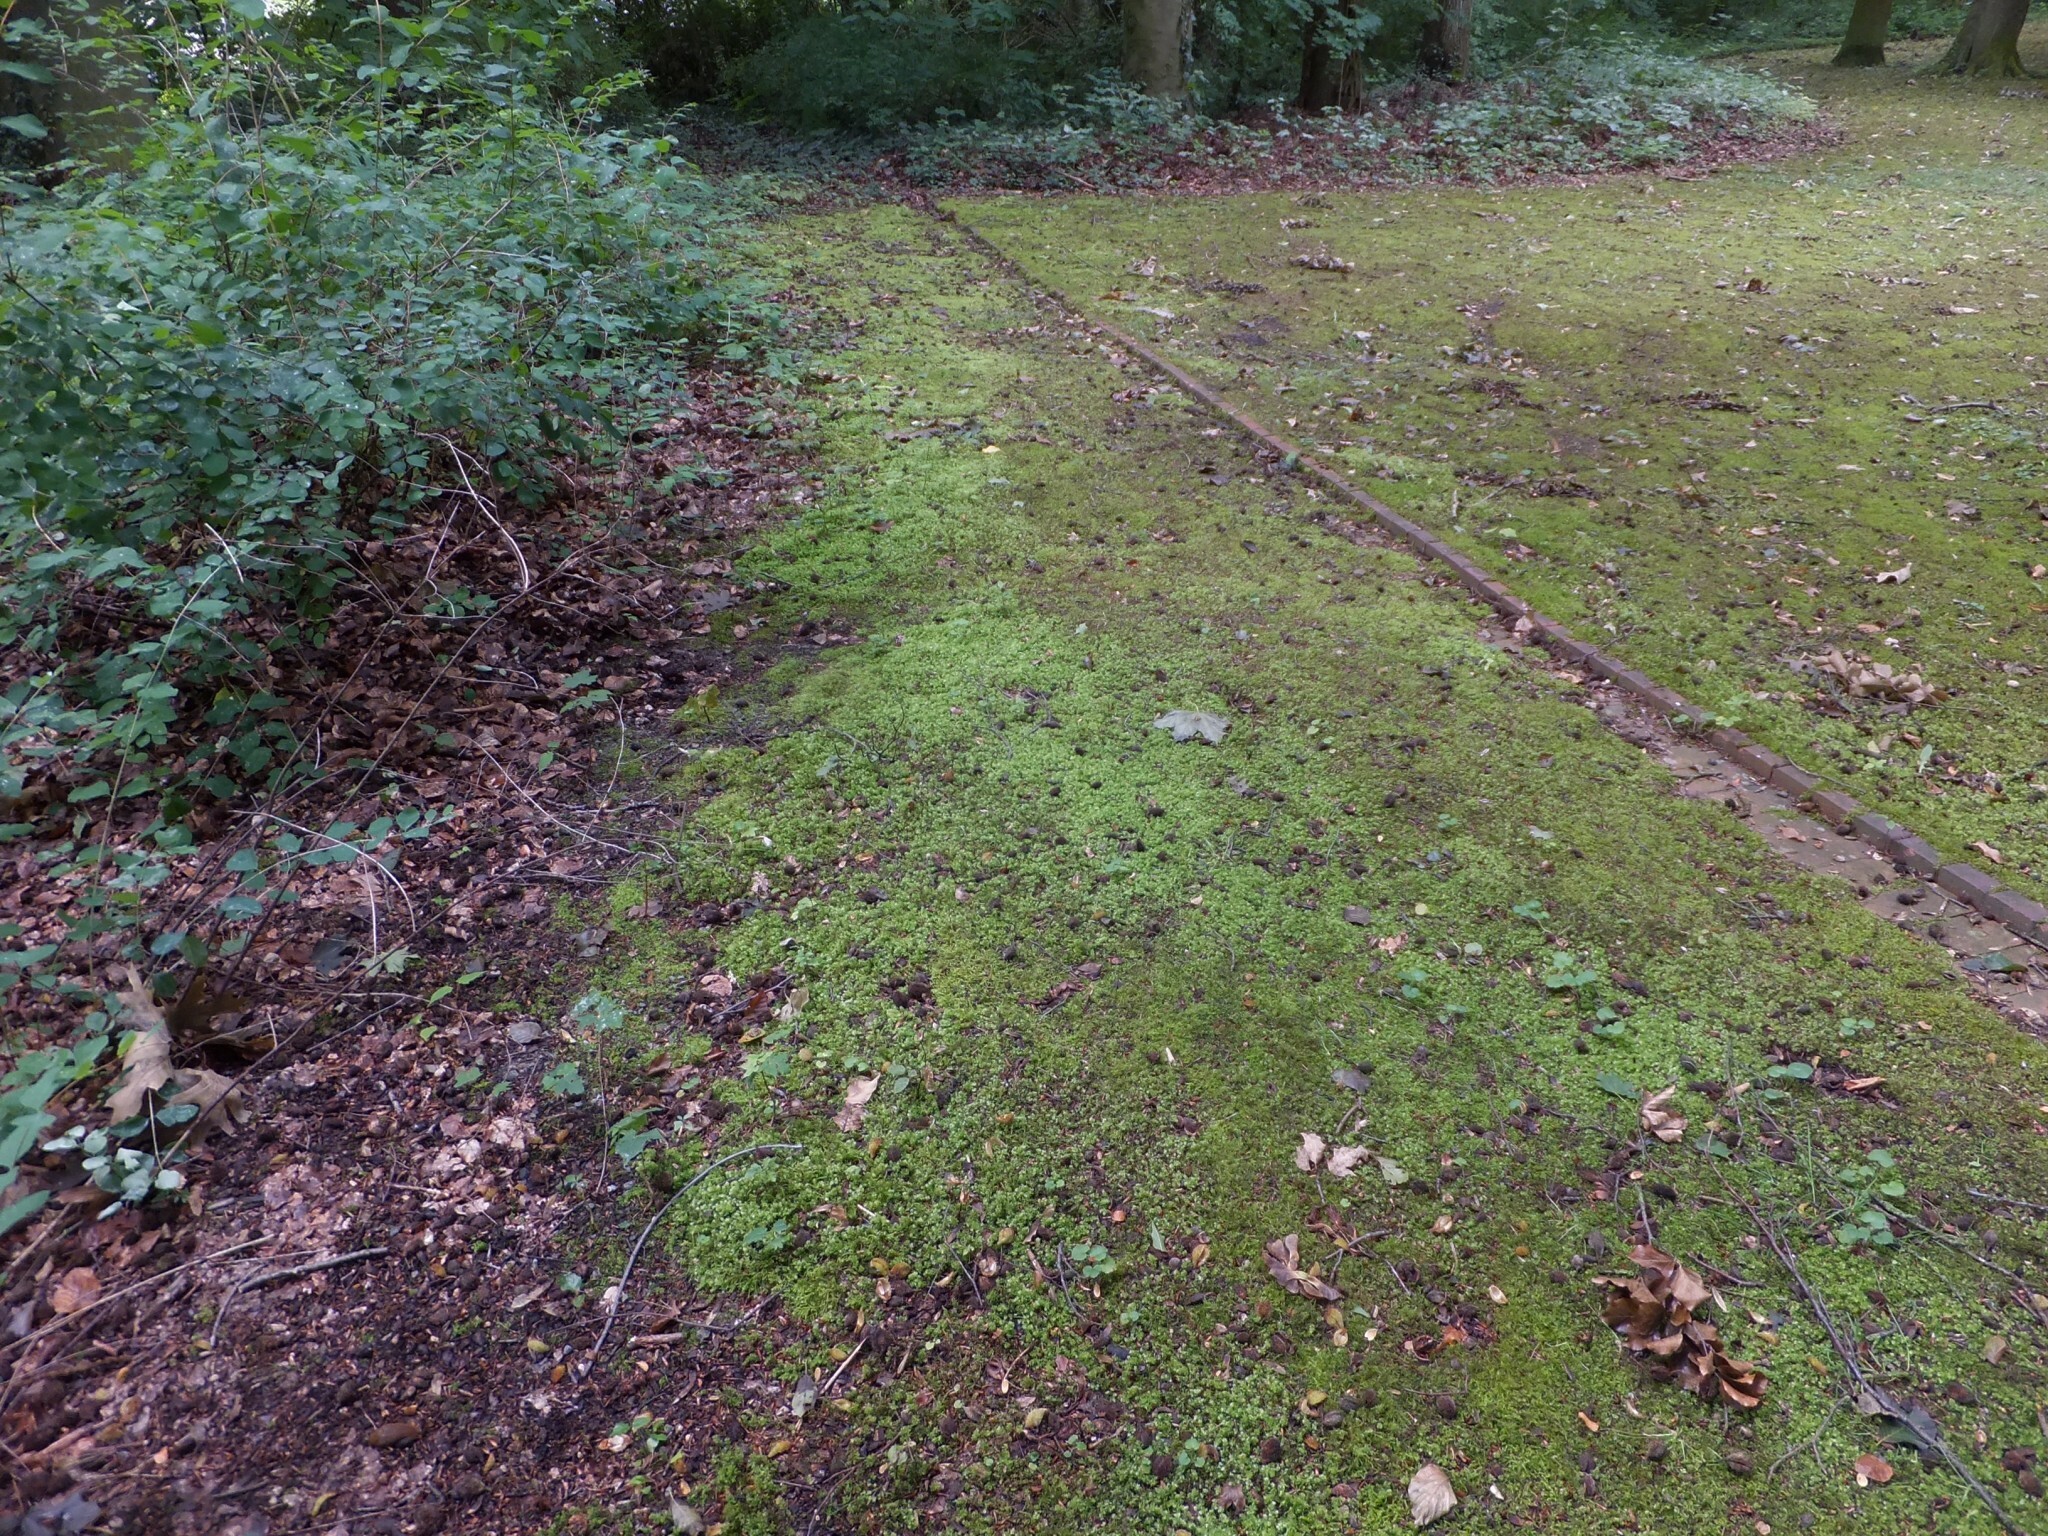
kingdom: Plantae
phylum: Bryophyta
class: Bryopsida
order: Bryales
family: Mniaceae
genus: Plagiomnium
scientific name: Plagiomnium undulatum
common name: Hart's-tongue thyme-moss
